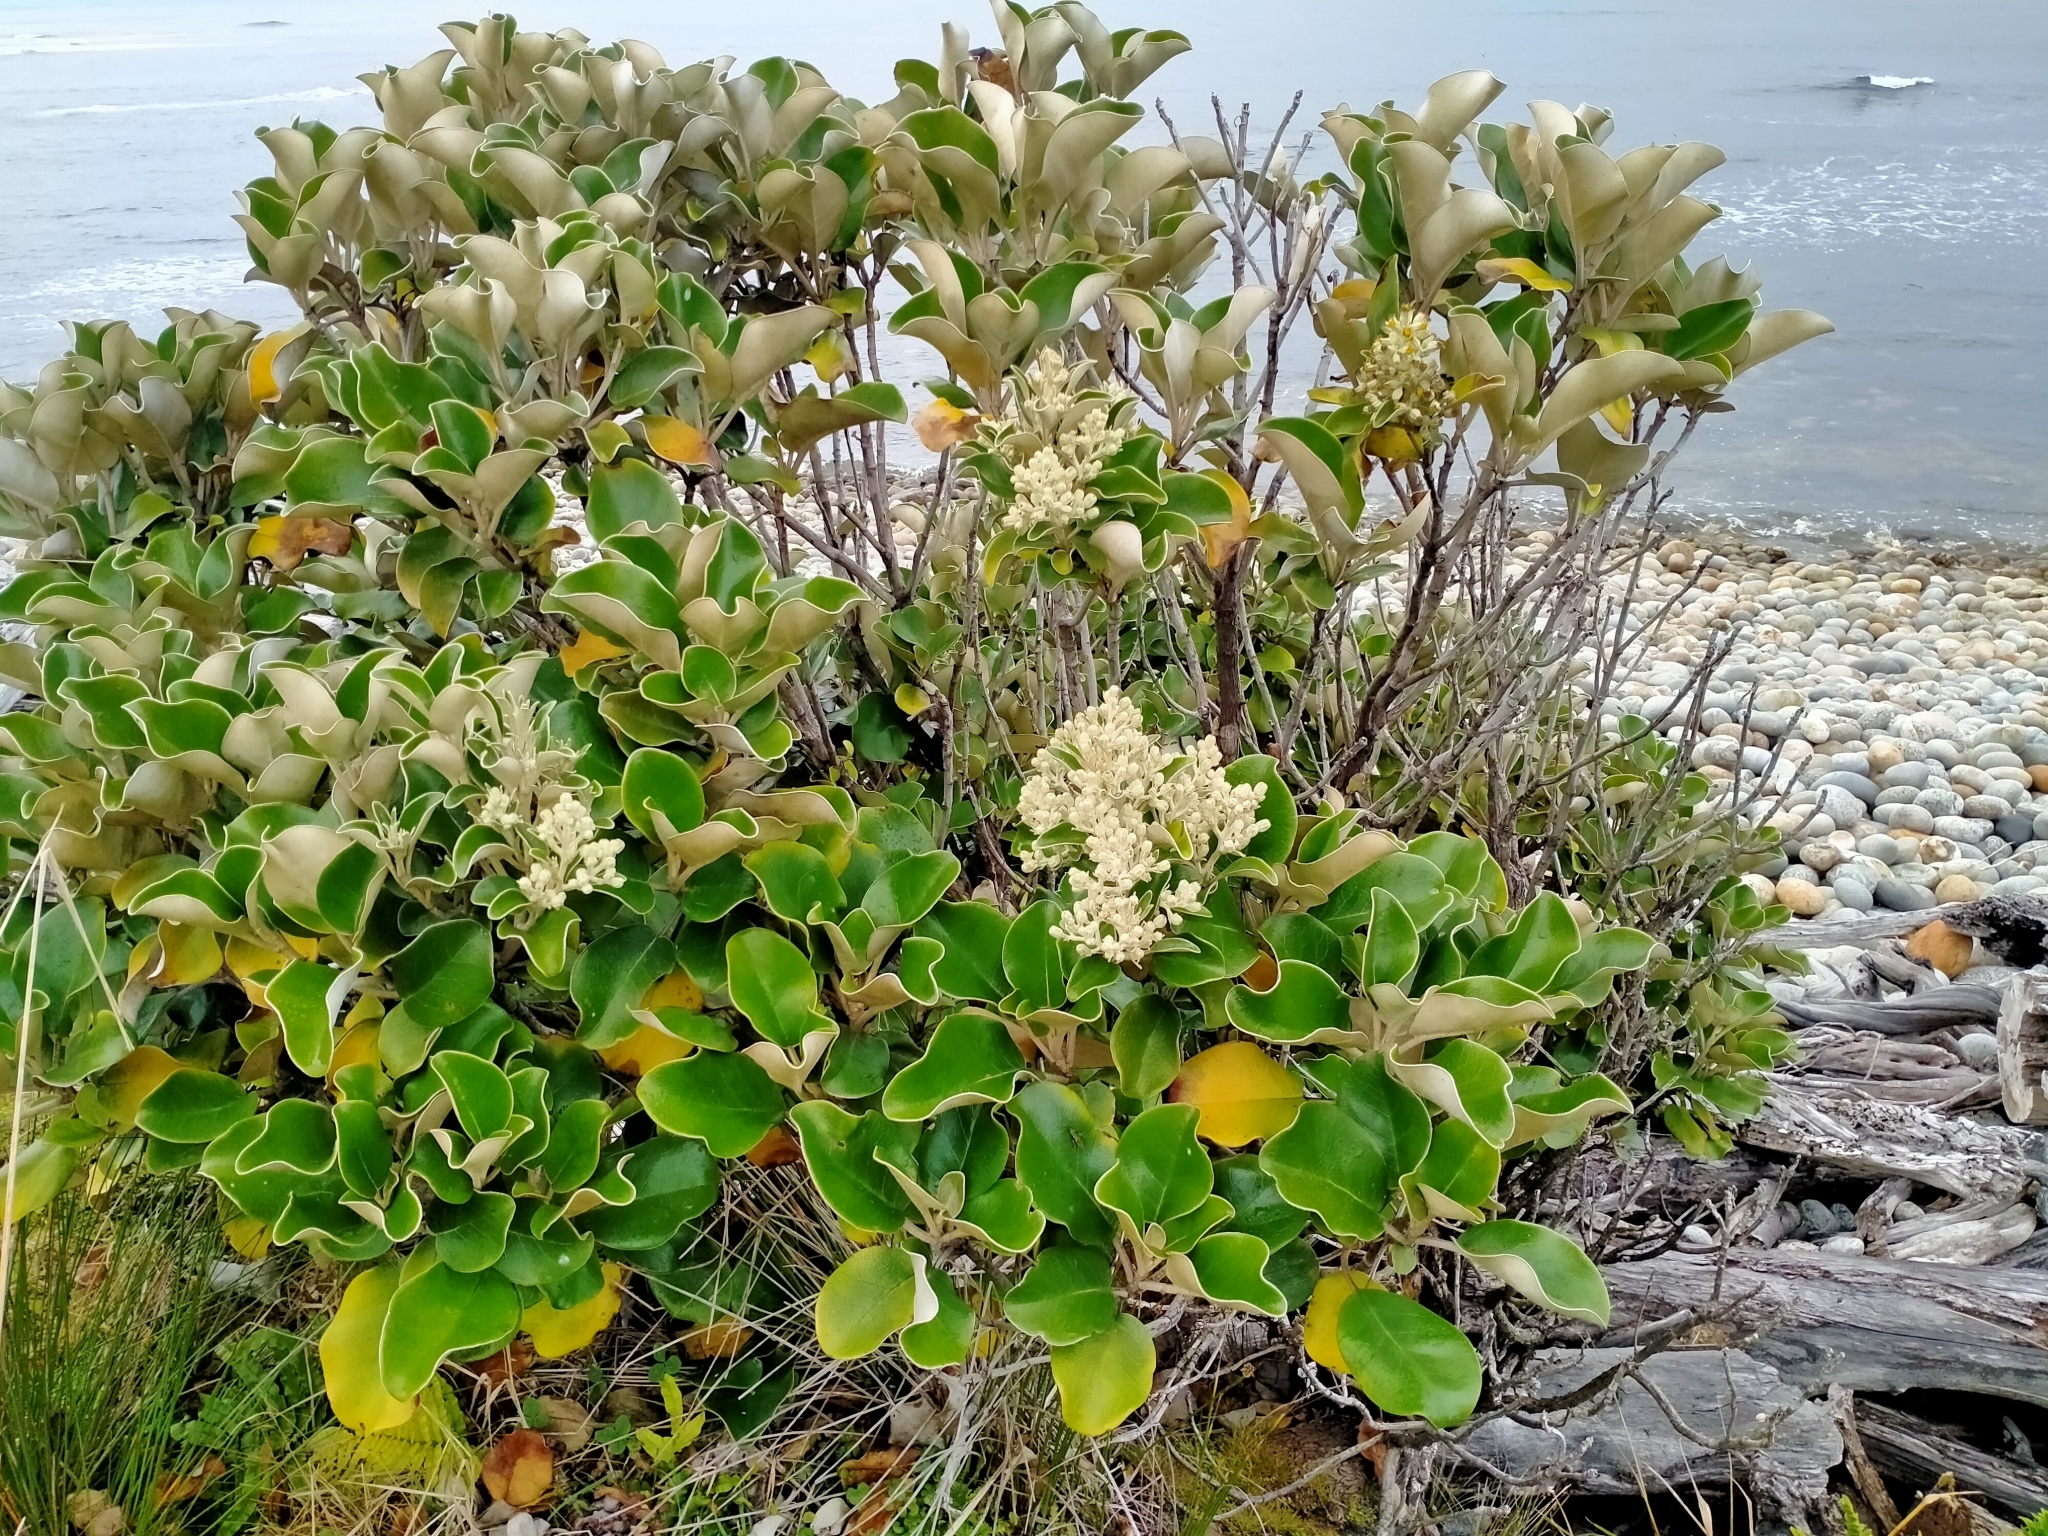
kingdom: Plantae
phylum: Tracheophyta
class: Magnoliopsida
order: Asterales
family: Asteraceae
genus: Brachyglottis
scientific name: Brachyglottis rotundifolia
